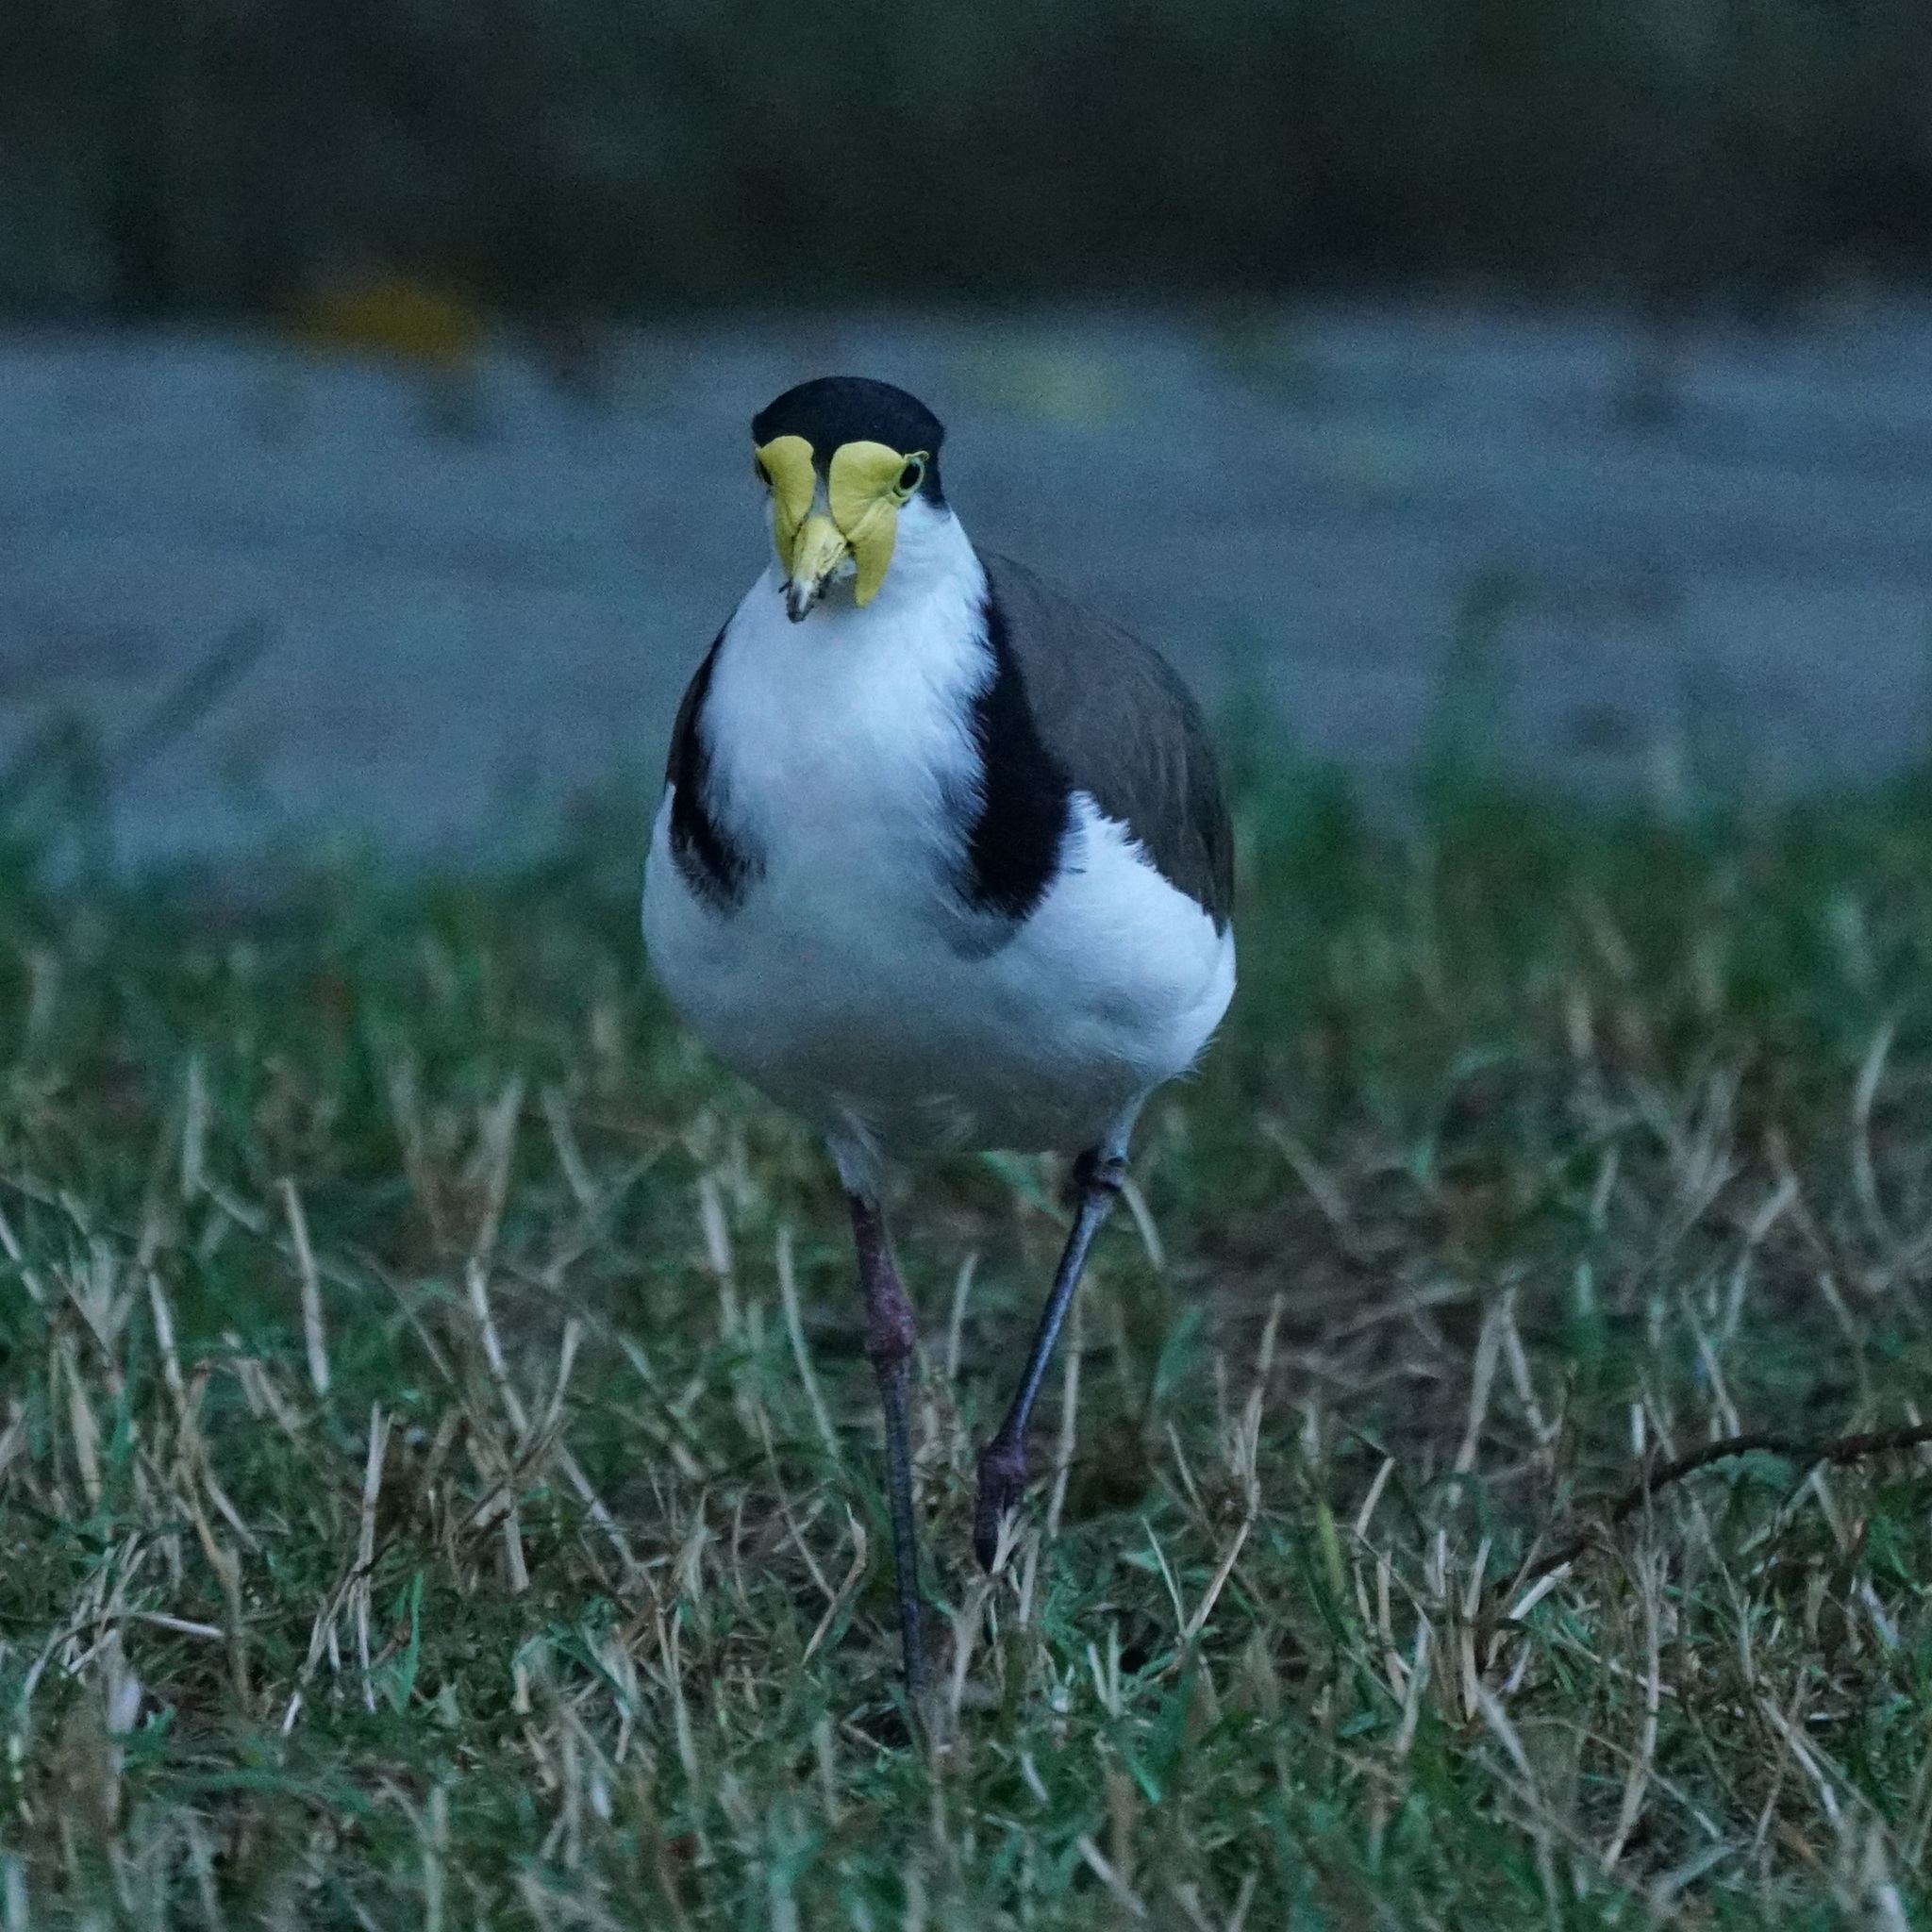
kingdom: Animalia
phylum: Chordata
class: Aves
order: Charadriiformes
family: Charadriidae
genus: Vanellus
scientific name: Vanellus miles
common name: Masked lapwing
